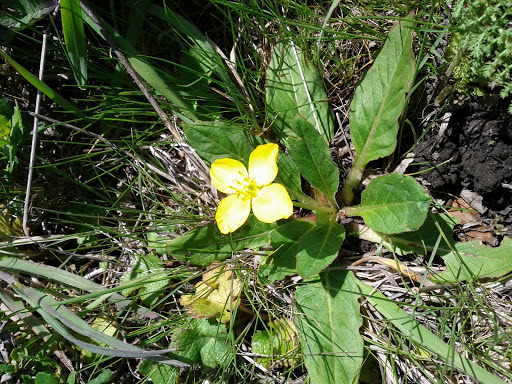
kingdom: Plantae
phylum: Tracheophyta
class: Magnoliopsida
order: Myrtales
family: Onagraceae
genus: Taraxia
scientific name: Taraxia ovata
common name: Goldeneggs
